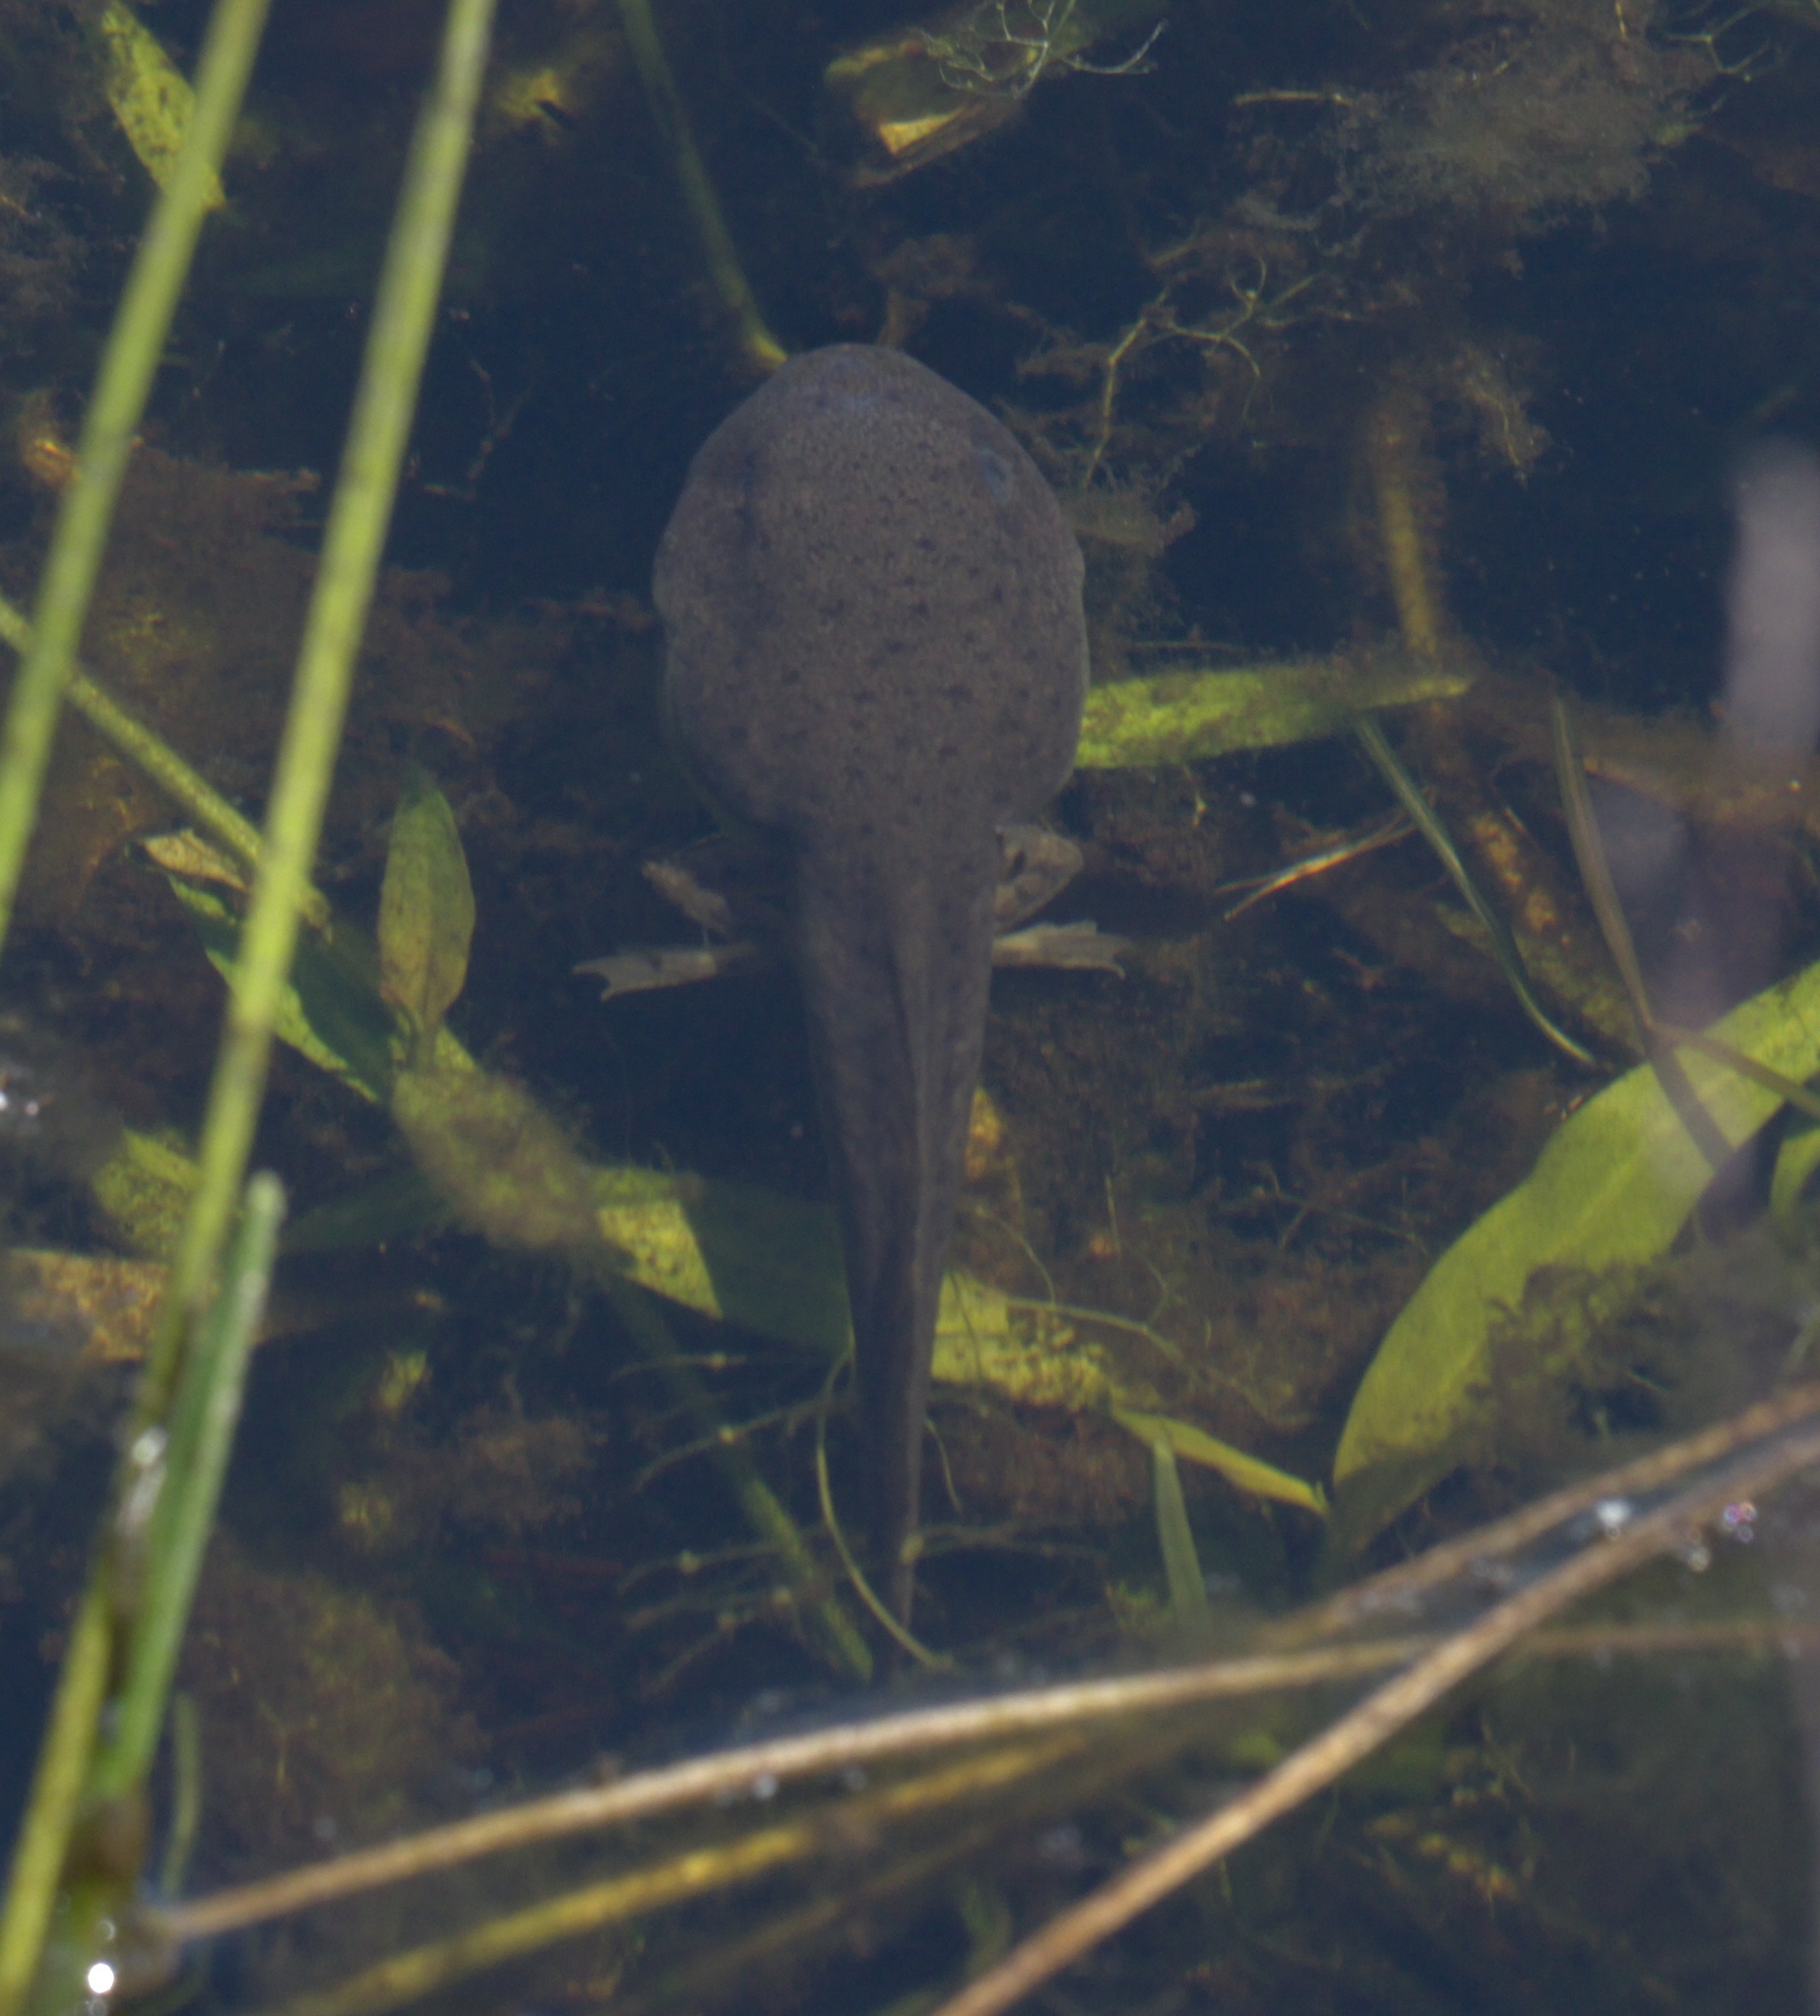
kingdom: Animalia
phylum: Chordata
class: Amphibia
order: Anura
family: Ranidae
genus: Lithobates
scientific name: Lithobates catesbeianus
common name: American bullfrog
